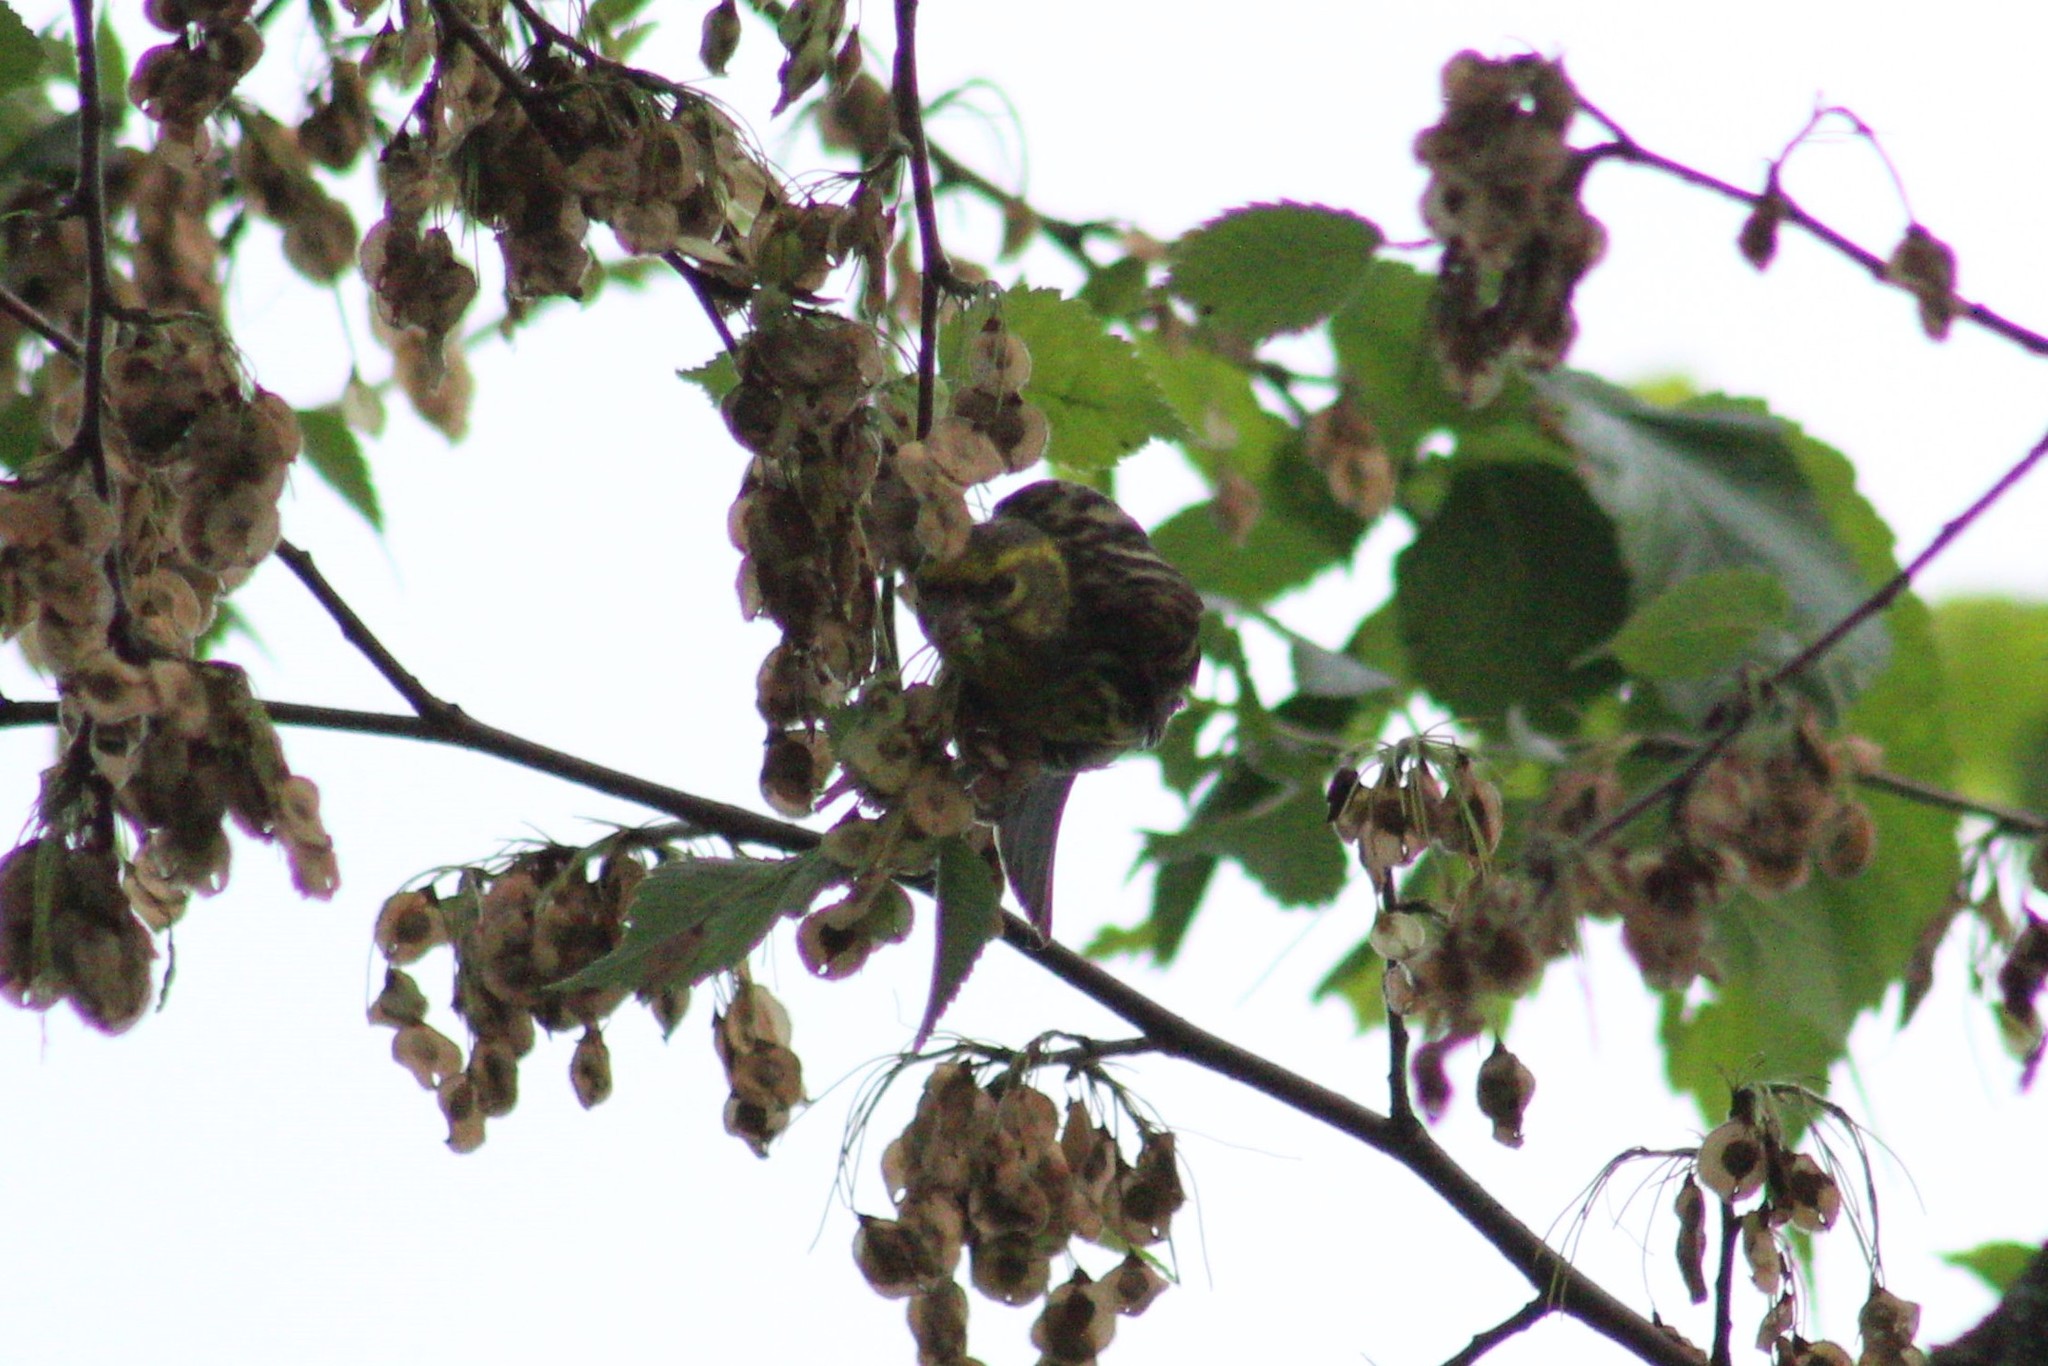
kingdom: Animalia
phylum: Chordata
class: Aves
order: Passeriformes
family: Fringillidae
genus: Serinus
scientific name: Serinus serinus
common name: European serin
